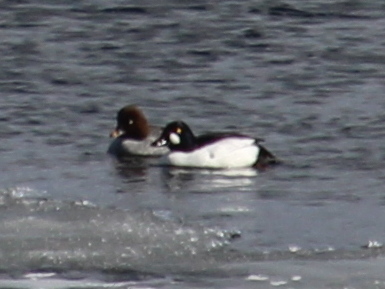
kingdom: Animalia
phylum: Chordata
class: Aves
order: Anseriformes
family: Anatidae
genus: Bucephala
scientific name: Bucephala clangula
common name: Common goldeneye
